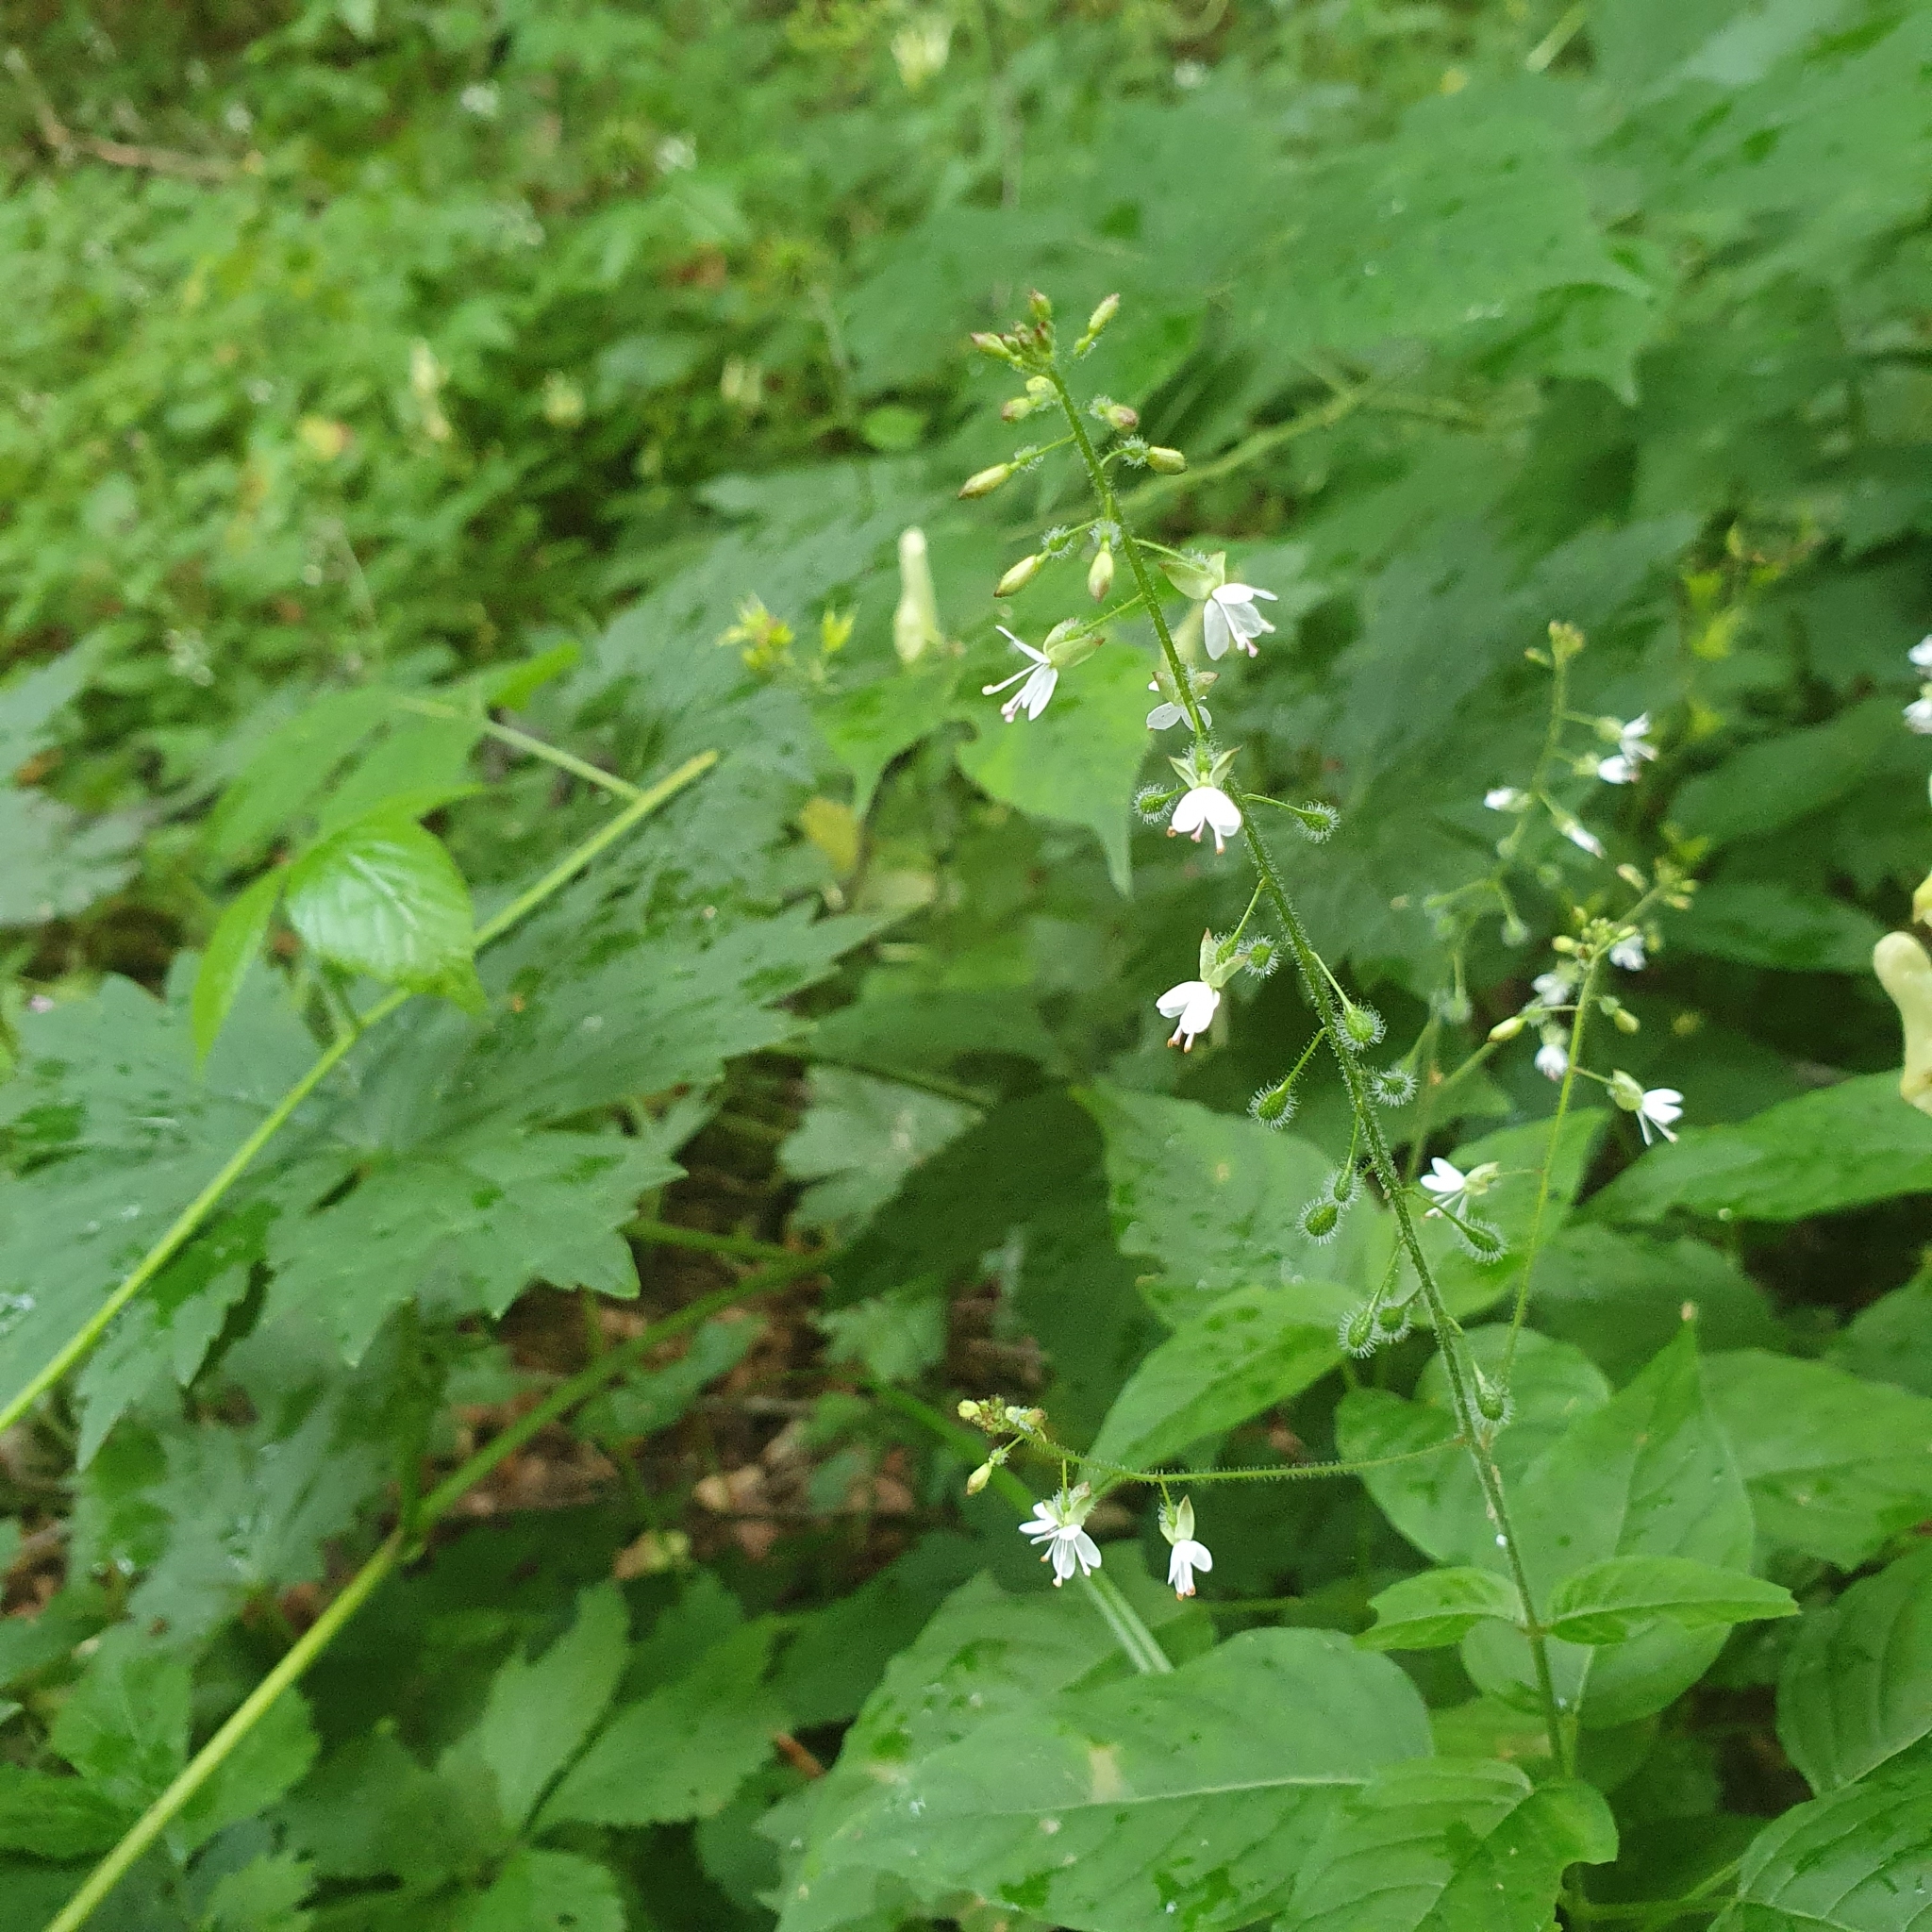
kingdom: Plantae
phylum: Tracheophyta
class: Magnoliopsida
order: Myrtales
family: Onagraceae
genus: Circaea
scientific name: Circaea lutetiana
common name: Enchanter's-nightshade
